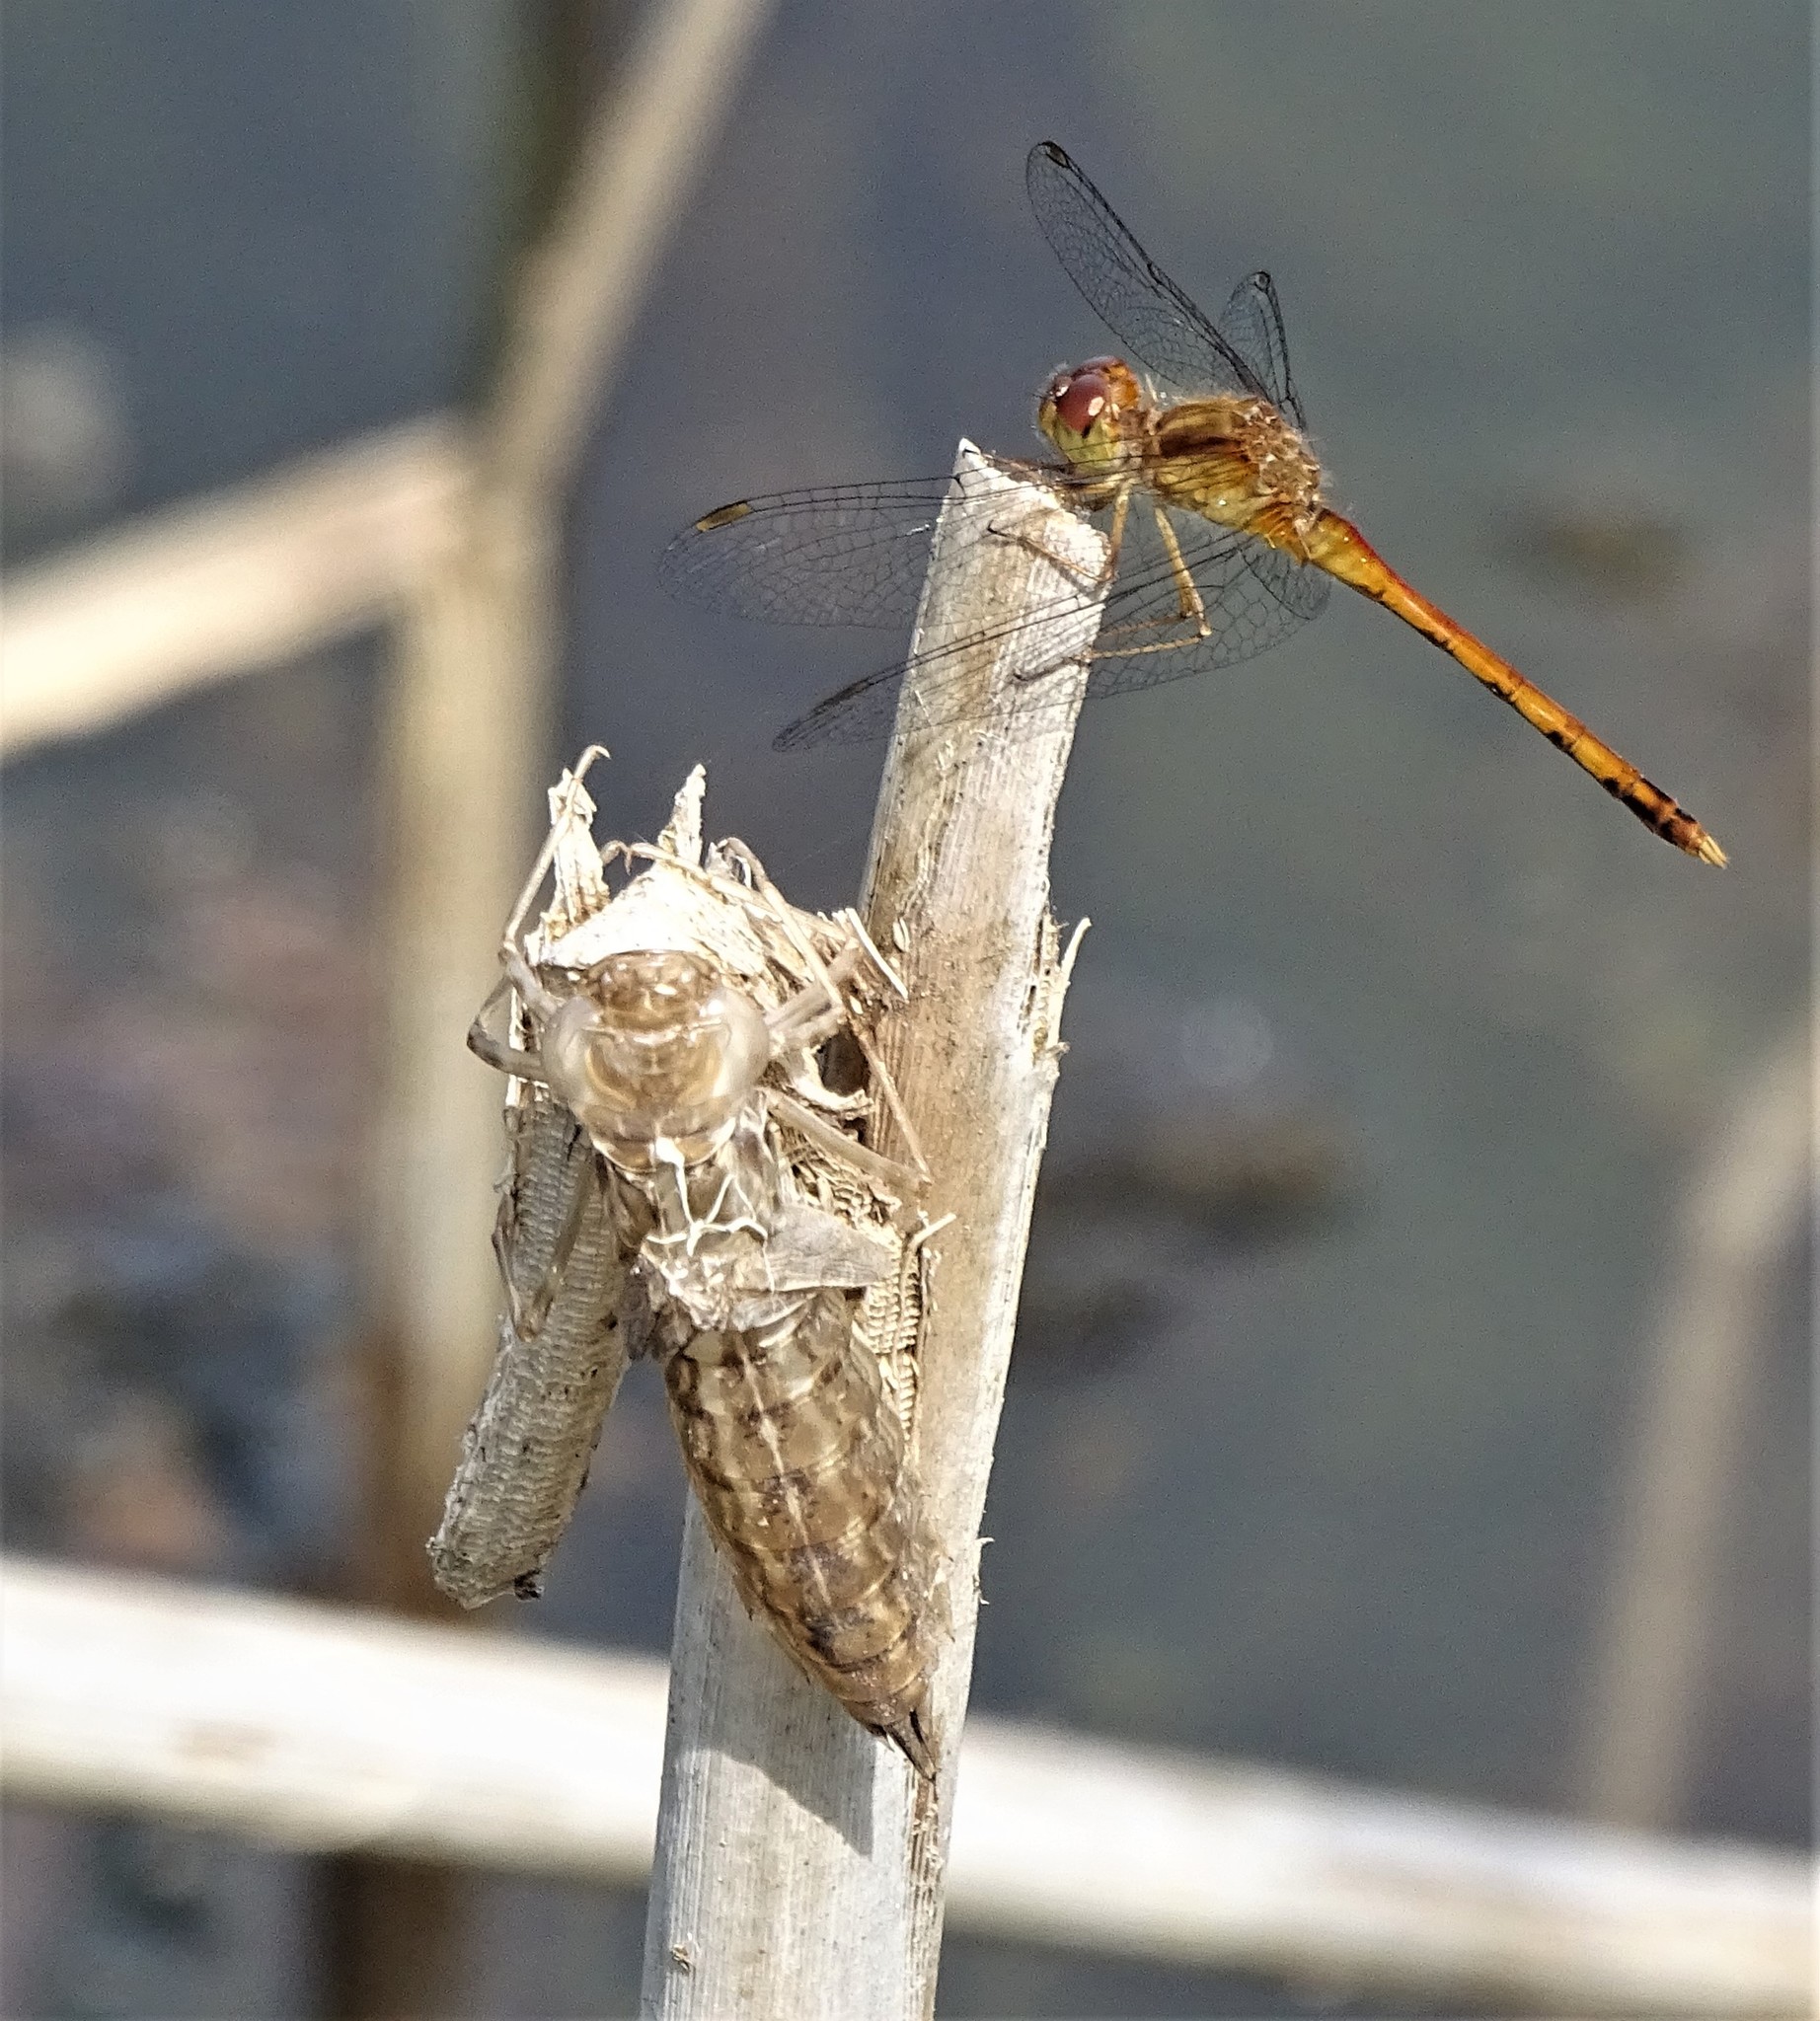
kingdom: Animalia
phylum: Arthropoda
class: Insecta
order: Odonata
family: Libellulidae
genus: Sympetrum
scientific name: Sympetrum vicinum
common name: Autumn meadowhawk
